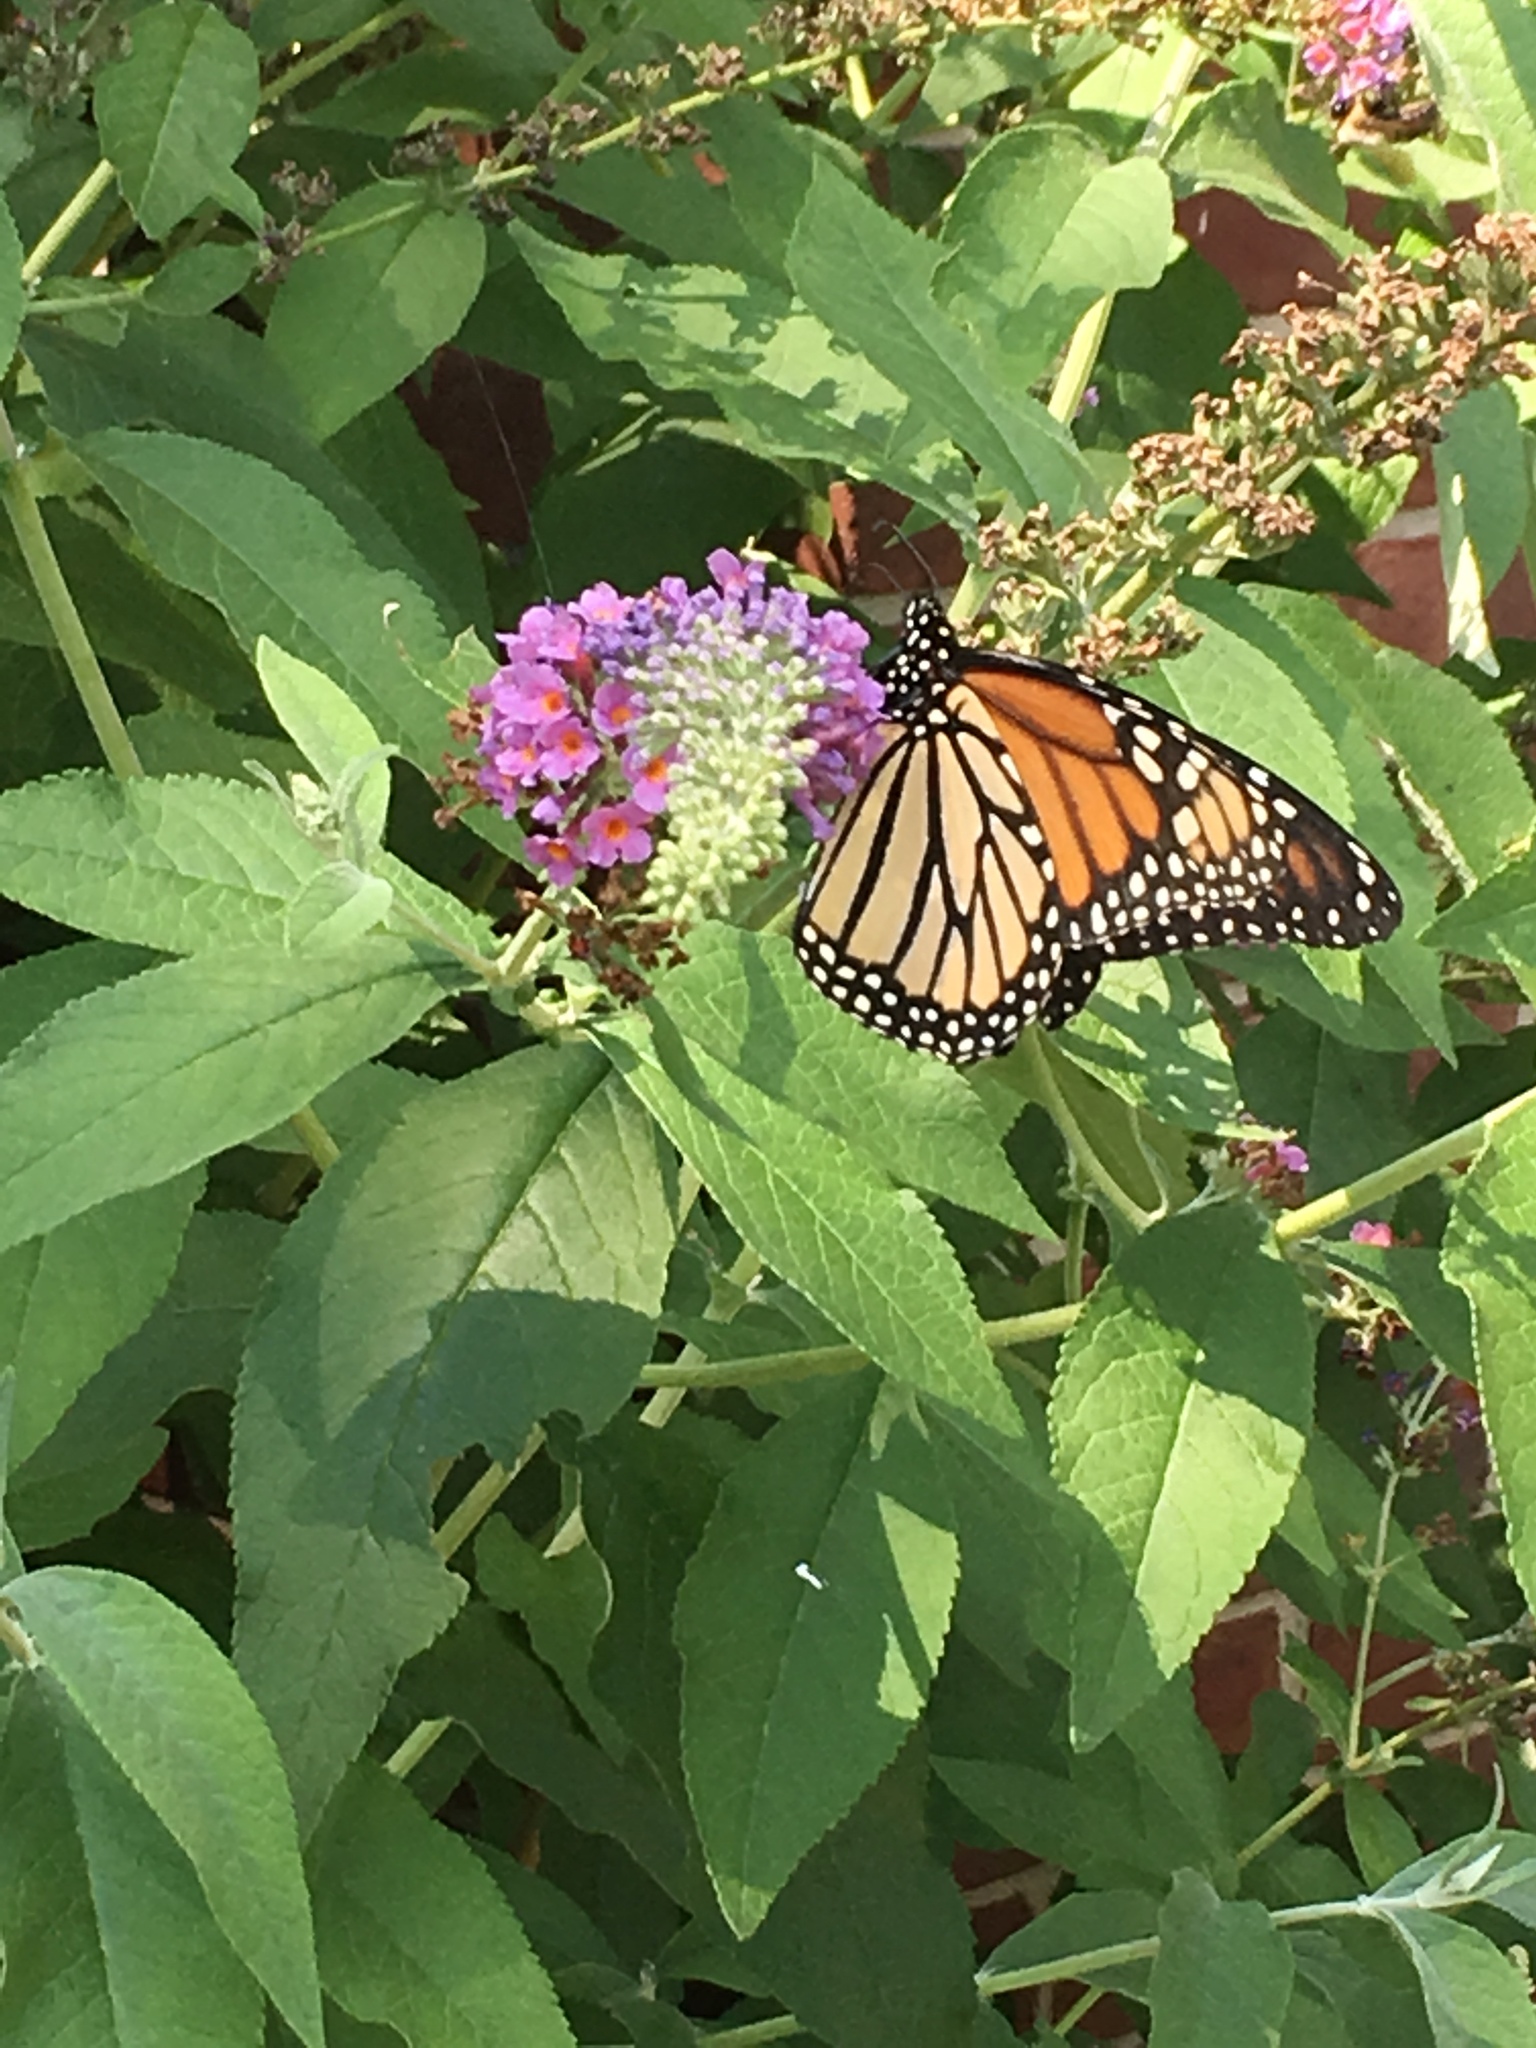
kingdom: Animalia
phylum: Arthropoda
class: Insecta
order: Lepidoptera
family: Nymphalidae
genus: Danaus
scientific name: Danaus plexippus
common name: Monarch
